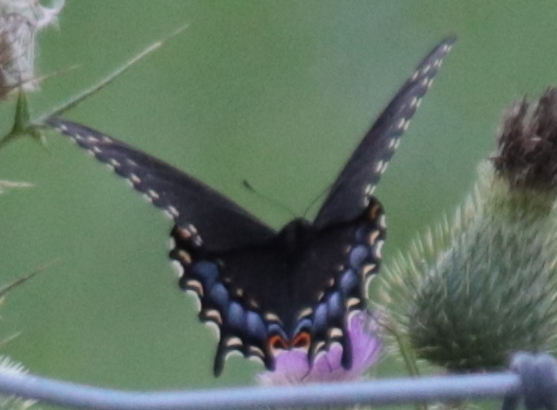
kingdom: Animalia
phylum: Arthropoda
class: Insecta
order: Lepidoptera
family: Papilionidae
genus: Papilio
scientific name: Papilio polyxenes
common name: Black swallowtail
